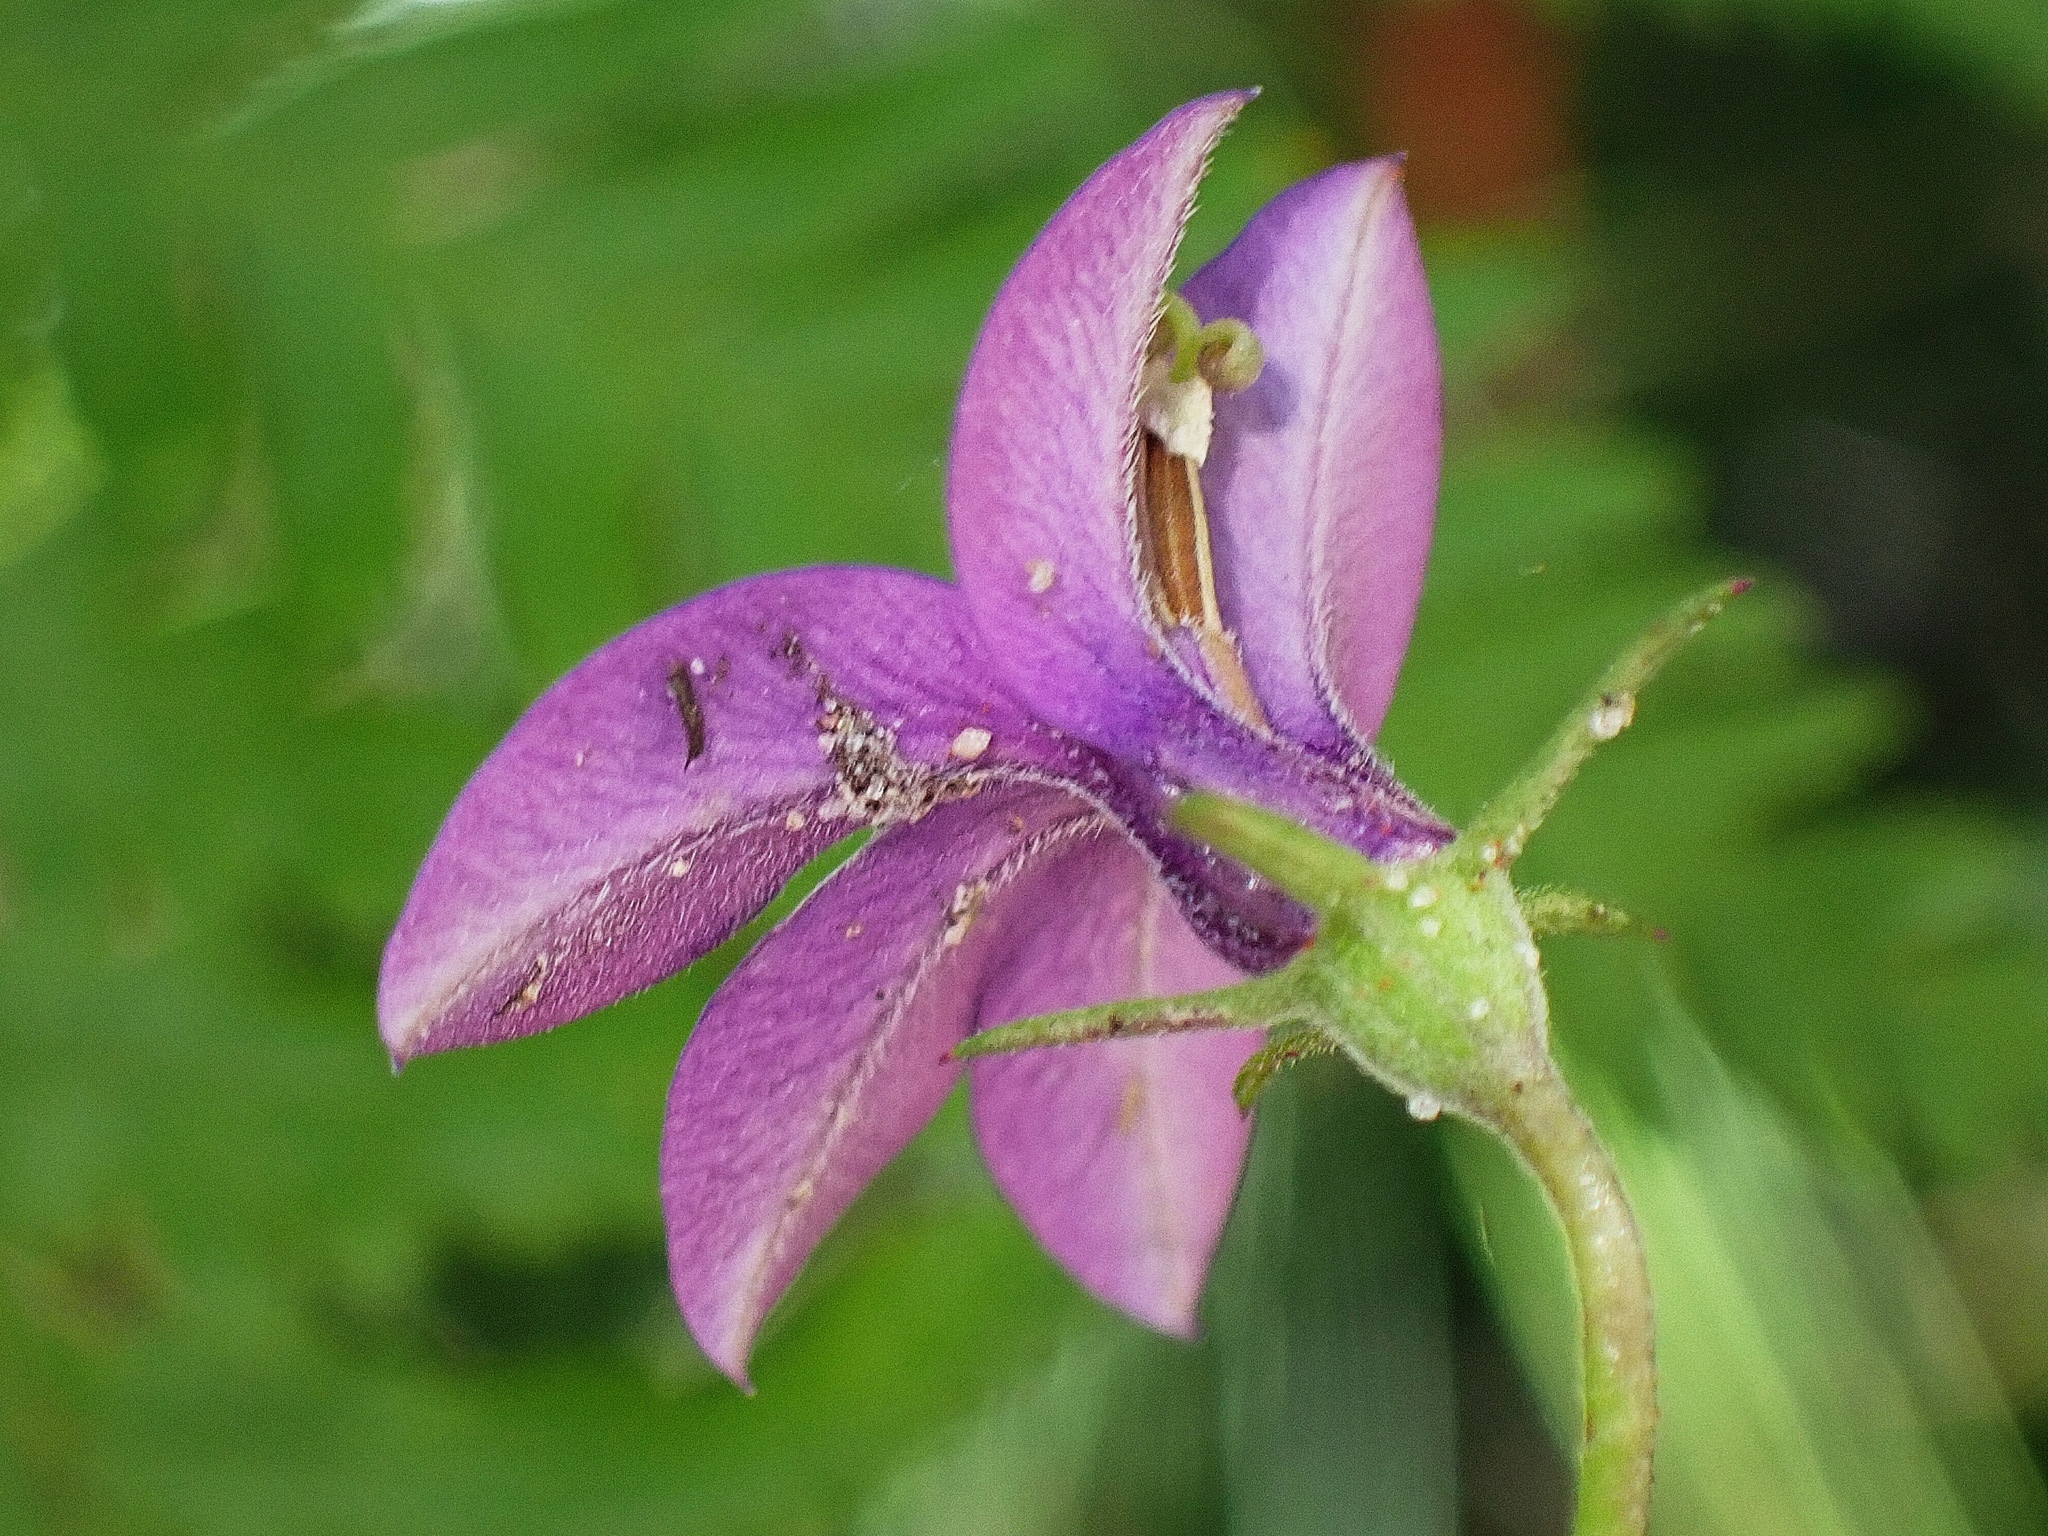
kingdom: Plantae
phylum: Tracheophyta
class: Magnoliopsida
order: Asterales
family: Campanulaceae
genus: Monopsis
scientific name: Monopsis unidentata
